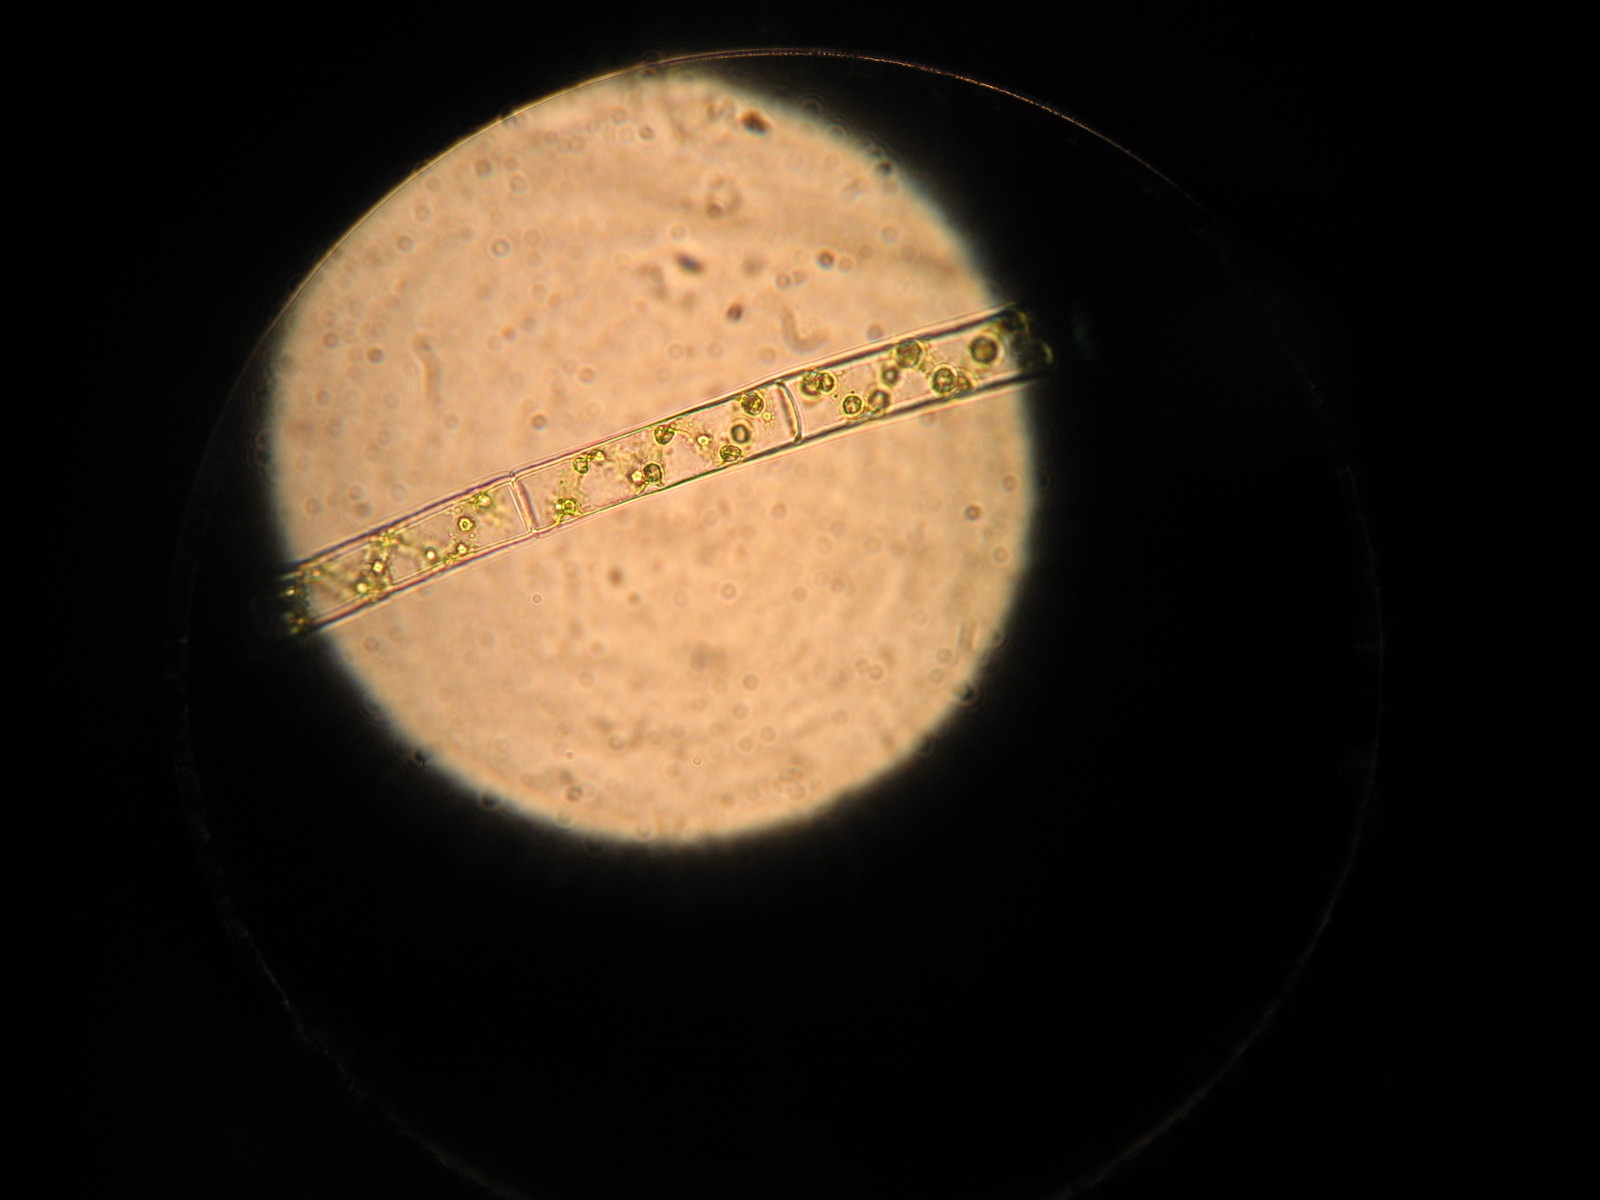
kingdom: Plantae
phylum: Charophyta
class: Zygnematophyceae
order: Zygnematales
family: Zygnemataceae
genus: Spirogyra
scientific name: Spirogyra
